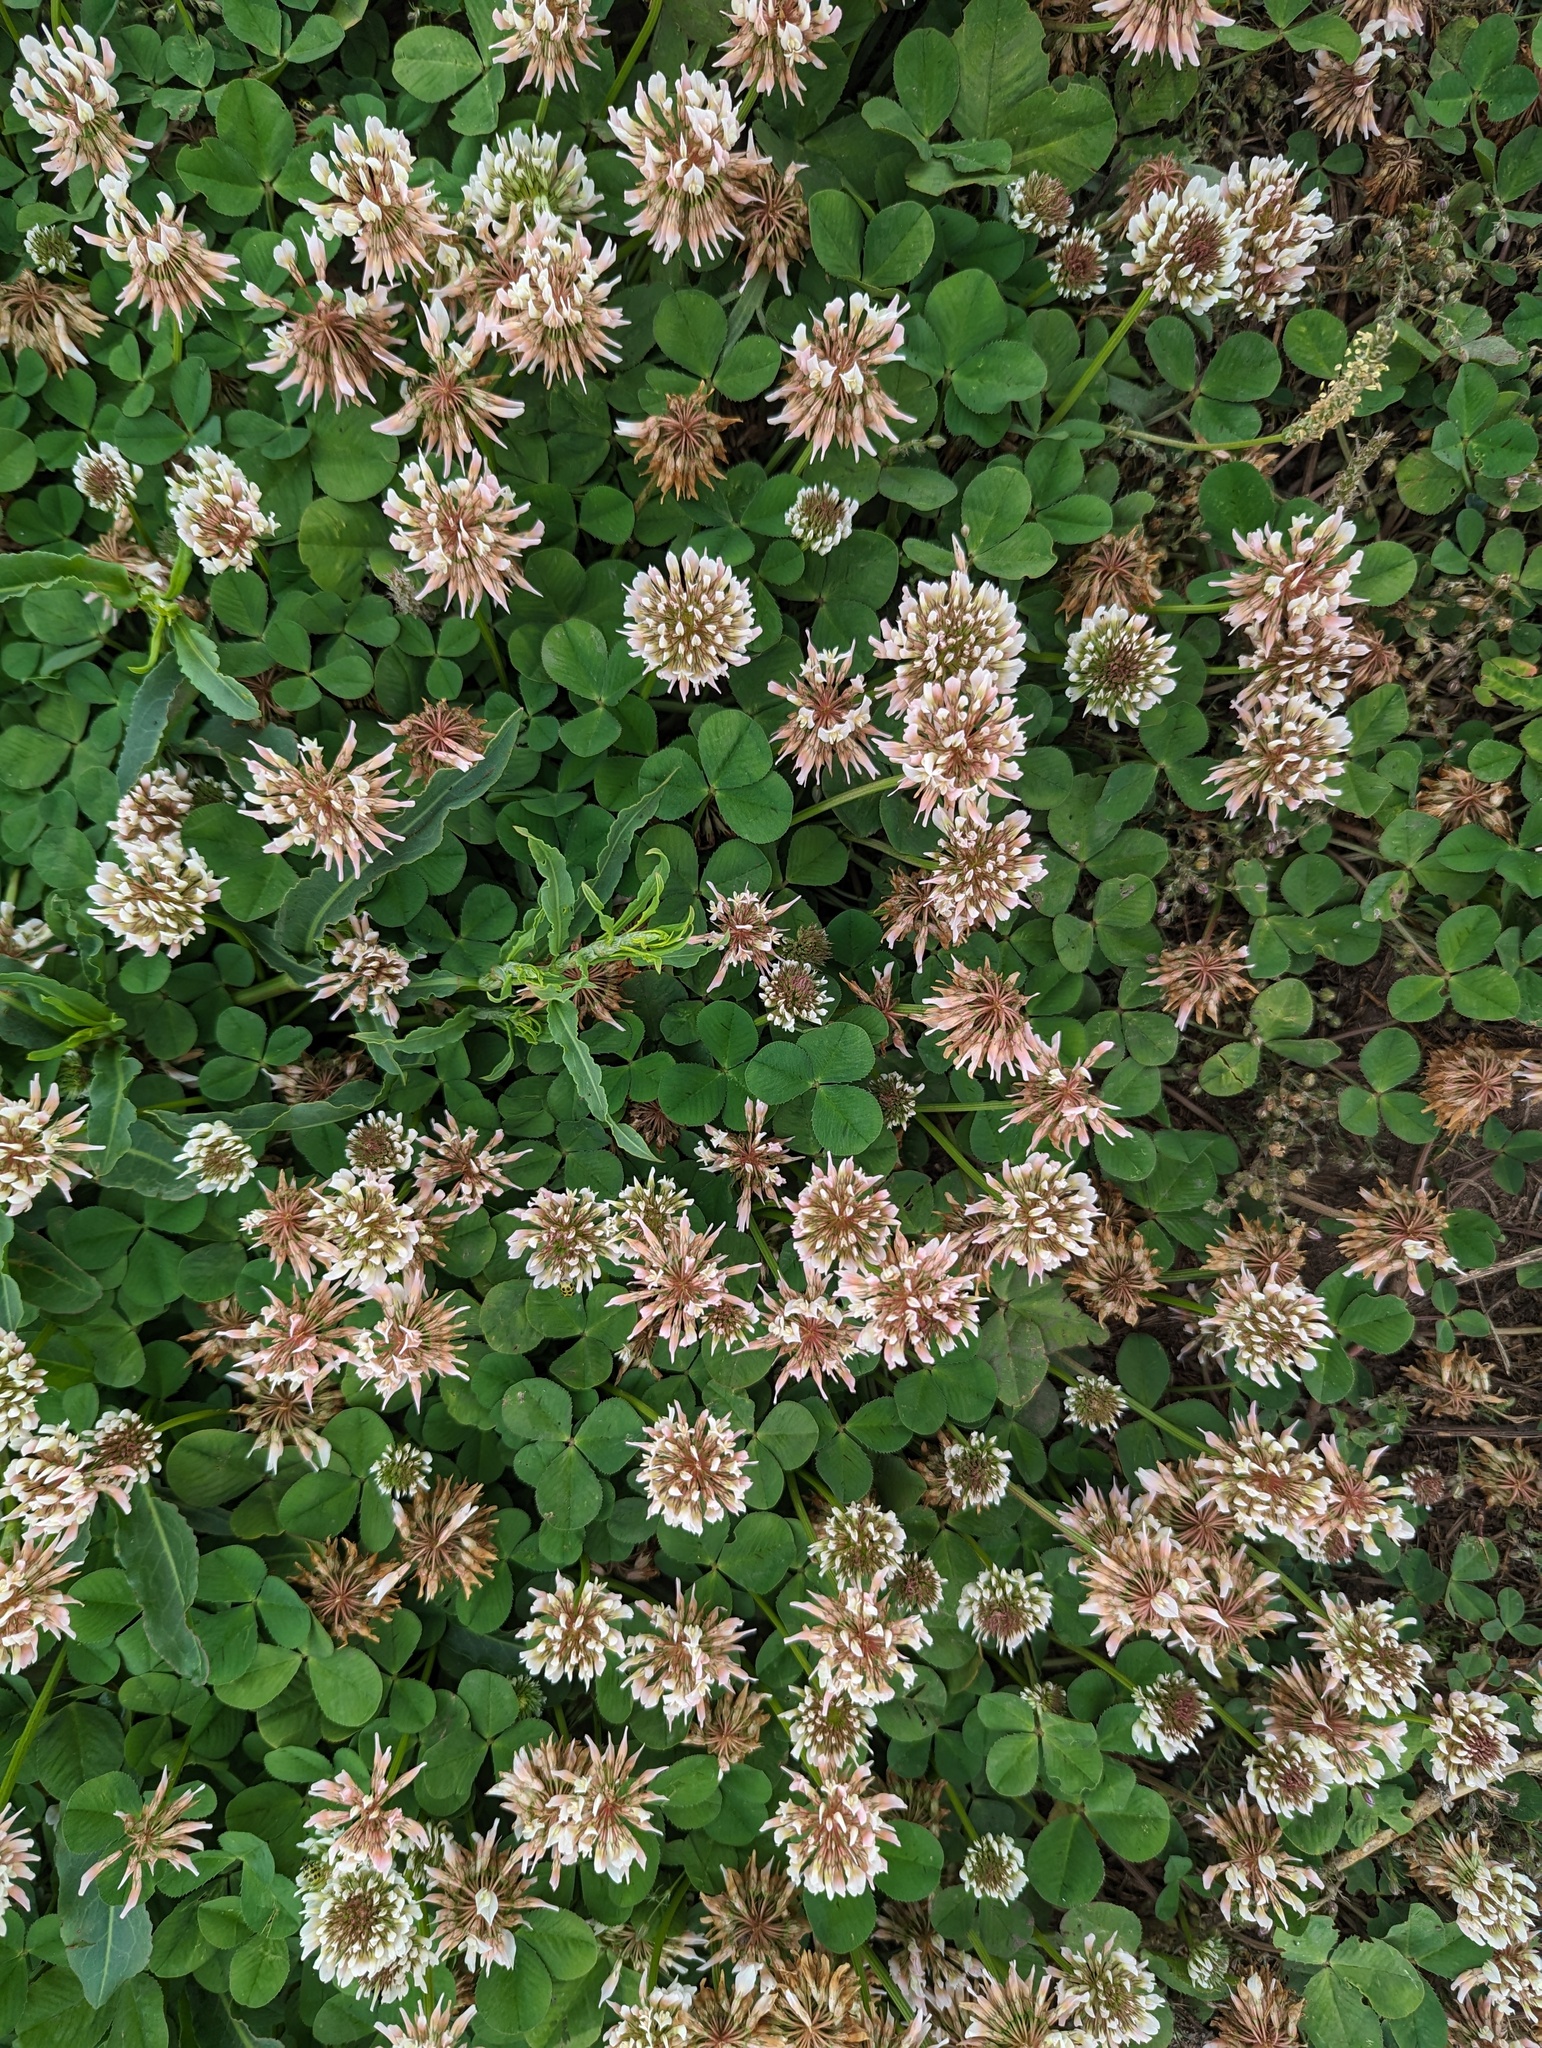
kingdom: Plantae
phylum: Tracheophyta
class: Magnoliopsida
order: Fabales
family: Fabaceae
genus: Trifolium
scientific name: Trifolium repens
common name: White clover
